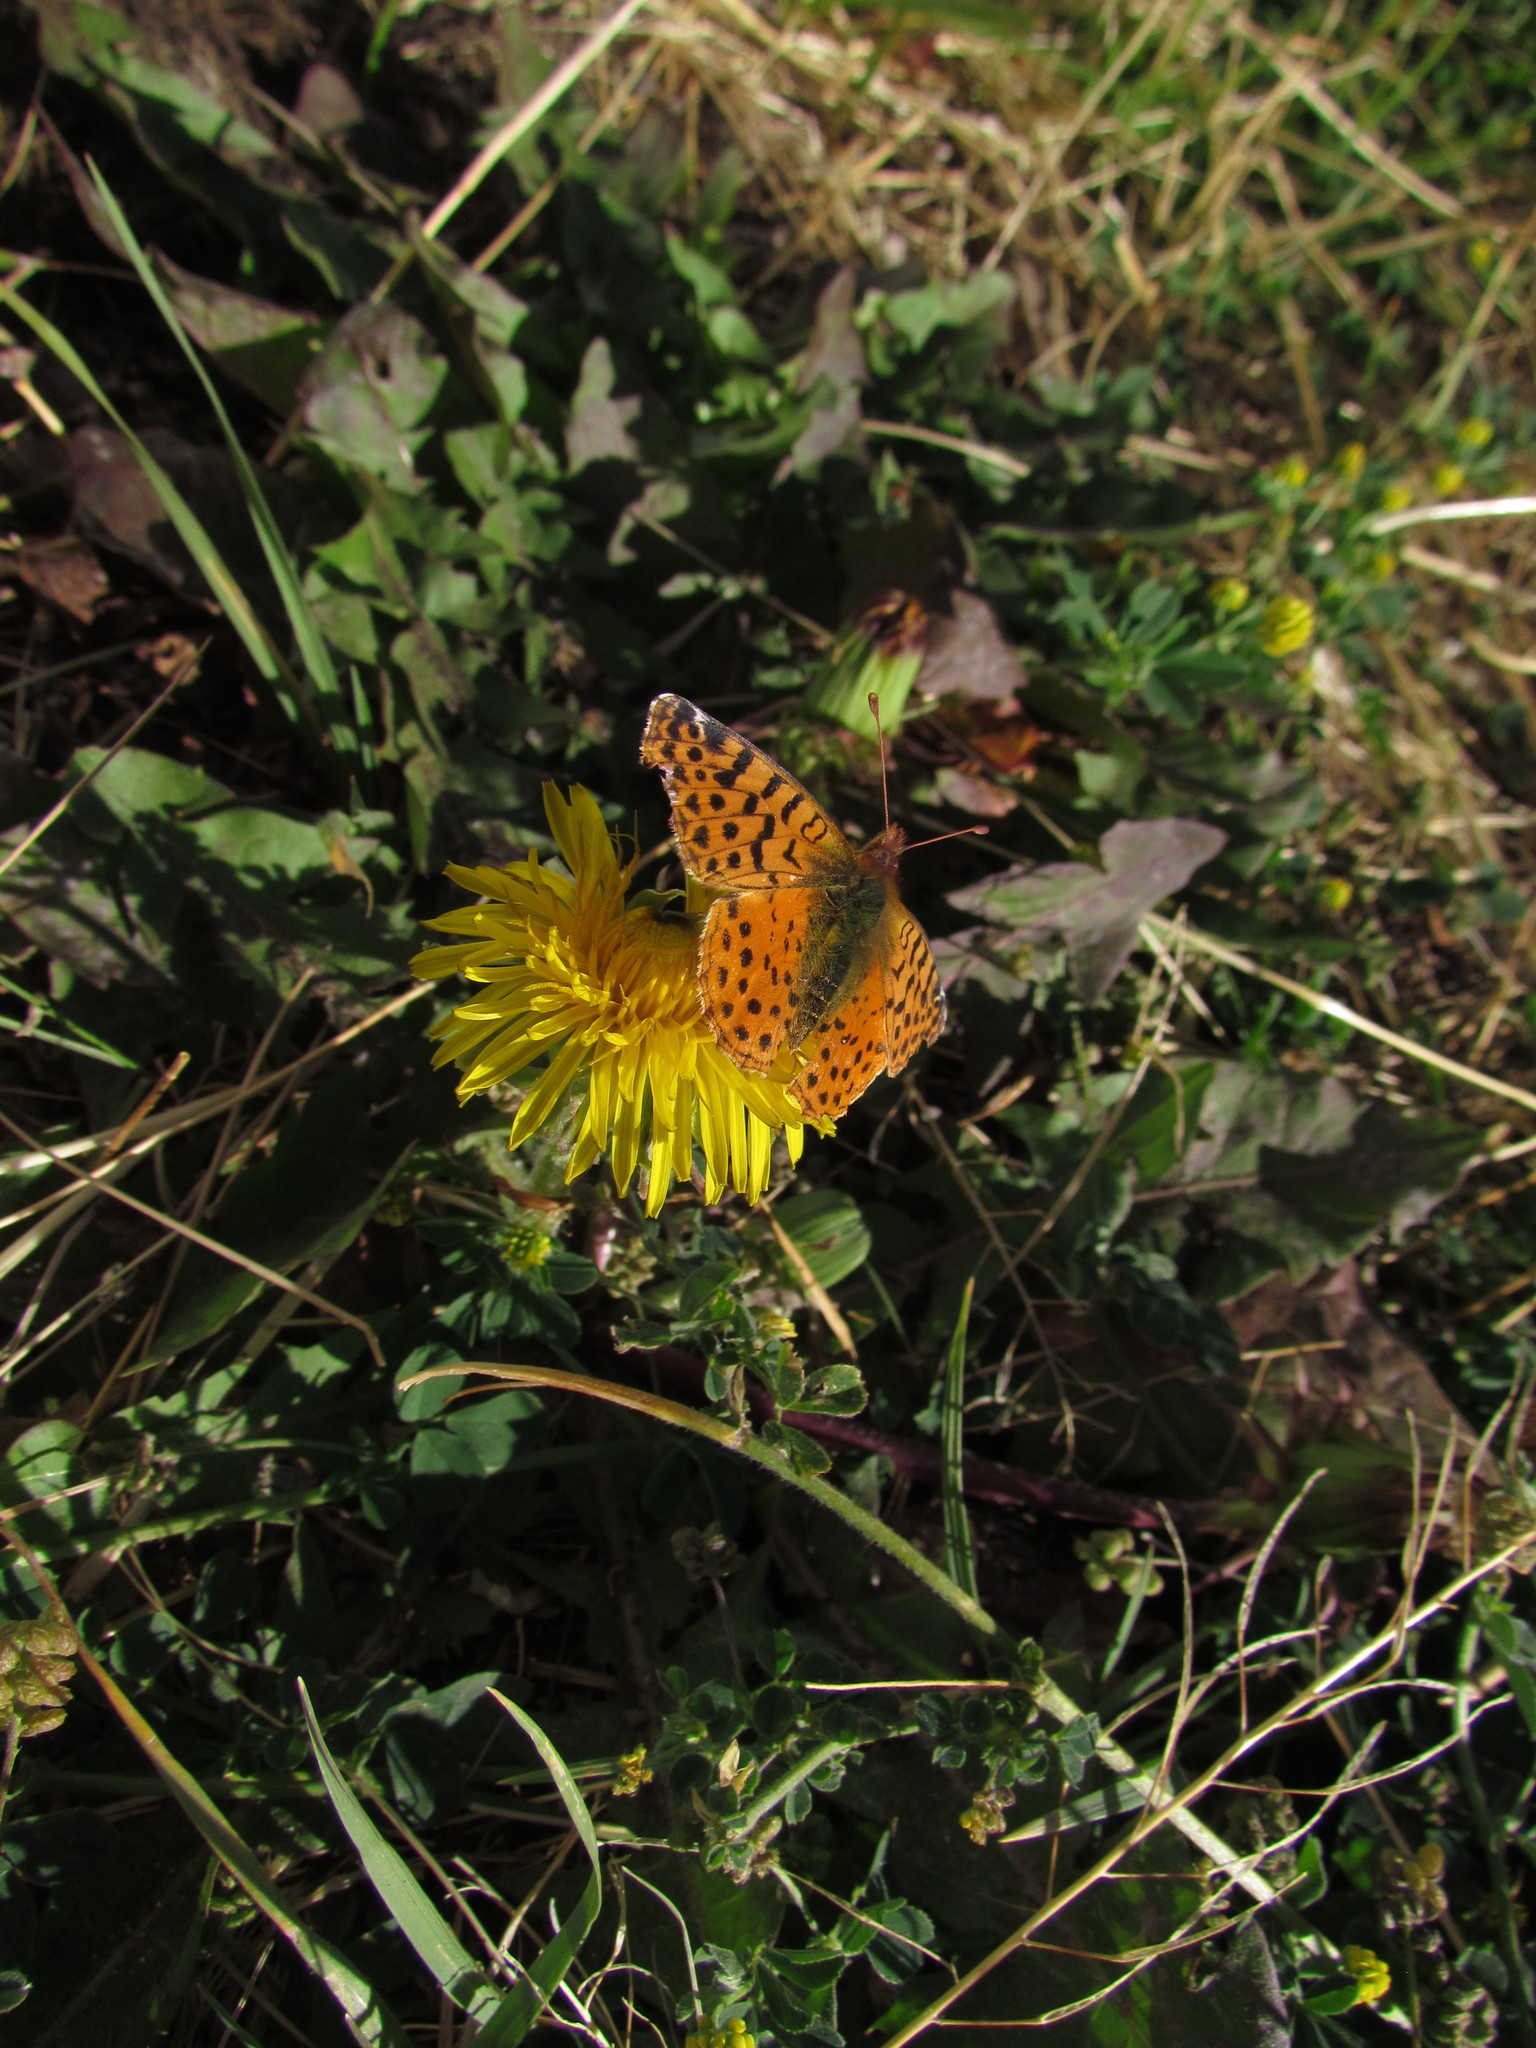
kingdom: Animalia
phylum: Arthropoda
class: Insecta
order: Lepidoptera
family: Nymphalidae
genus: Issoria
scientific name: Issoria Yramea cytheris
